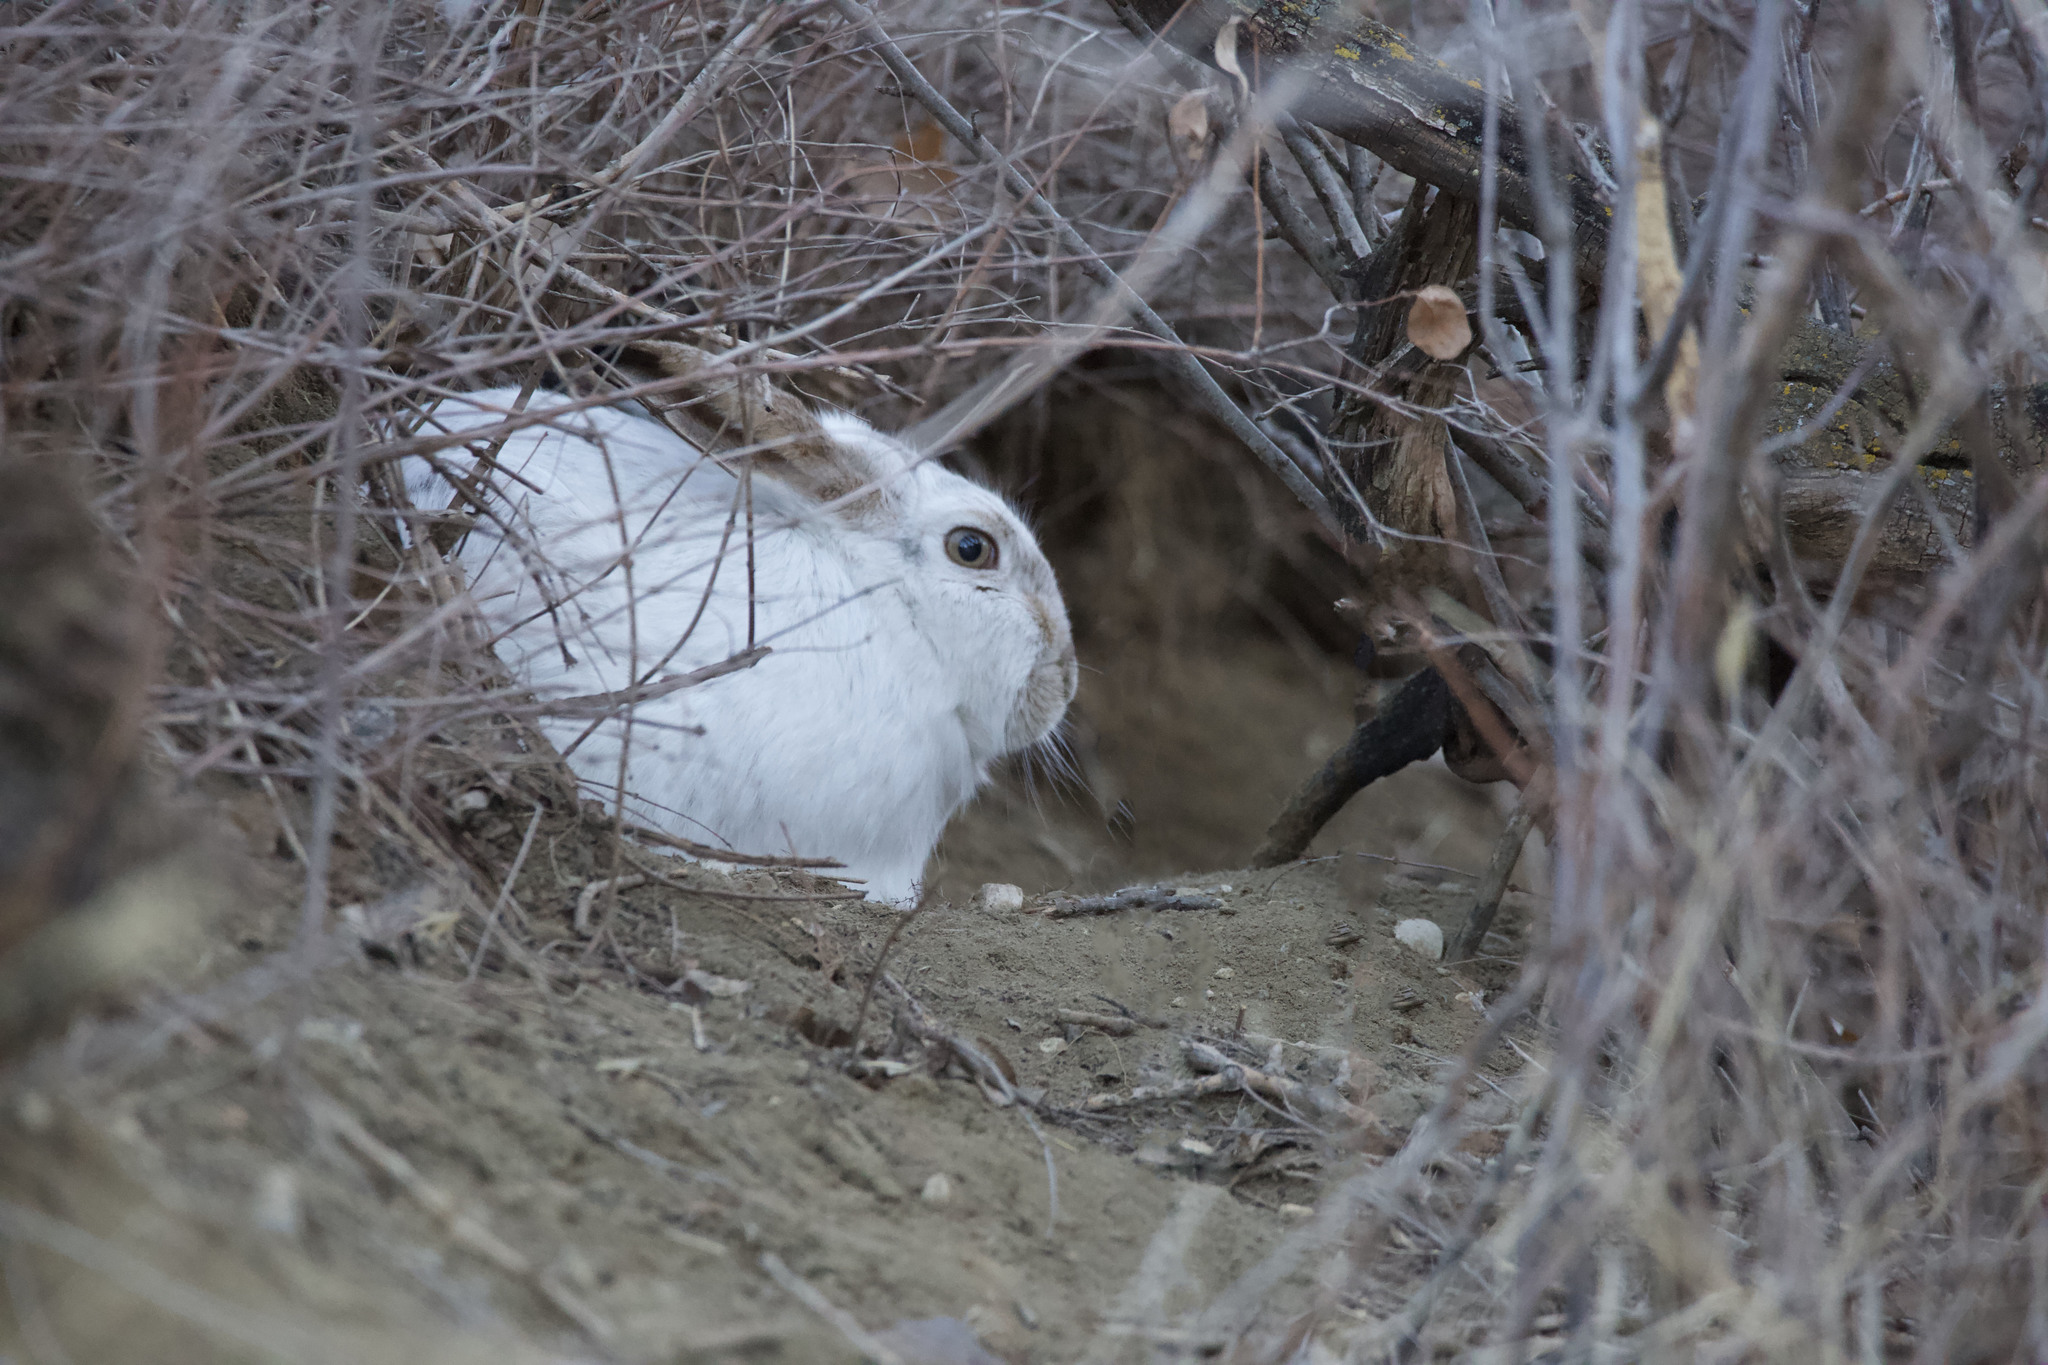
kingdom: Animalia
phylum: Chordata
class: Mammalia
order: Lagomorpha
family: Leporidae
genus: Lepus
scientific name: Lepus townsendii
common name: White-tailed jackrabbit
